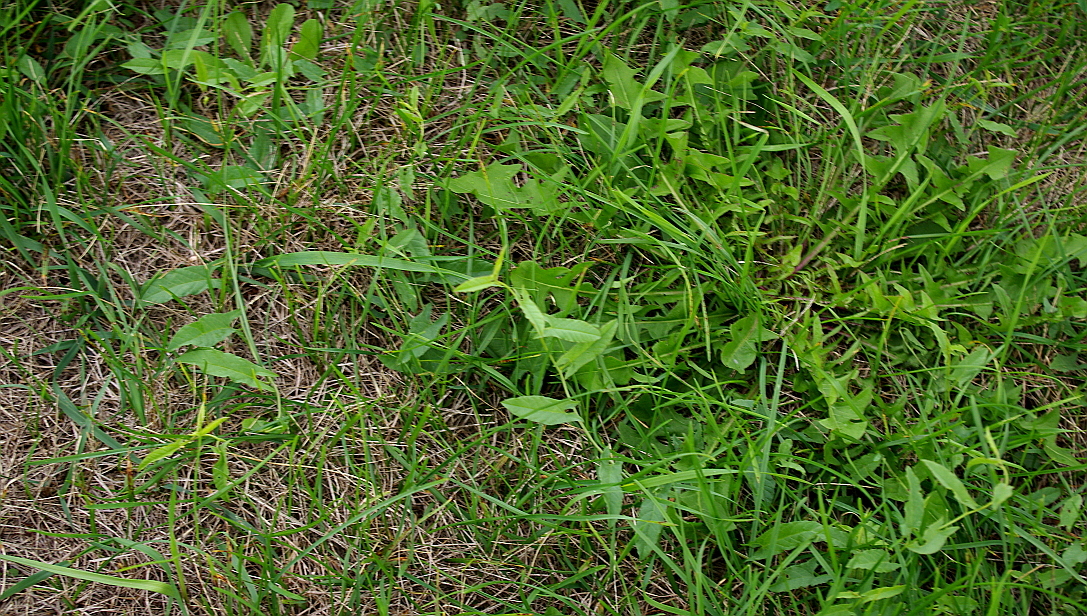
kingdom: Plantae
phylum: Tracheophyta
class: Magnoliopsida
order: Solanales
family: Convolvulaceae
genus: Convolvulus
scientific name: Convolvulus arvensis
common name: Field bindweed
